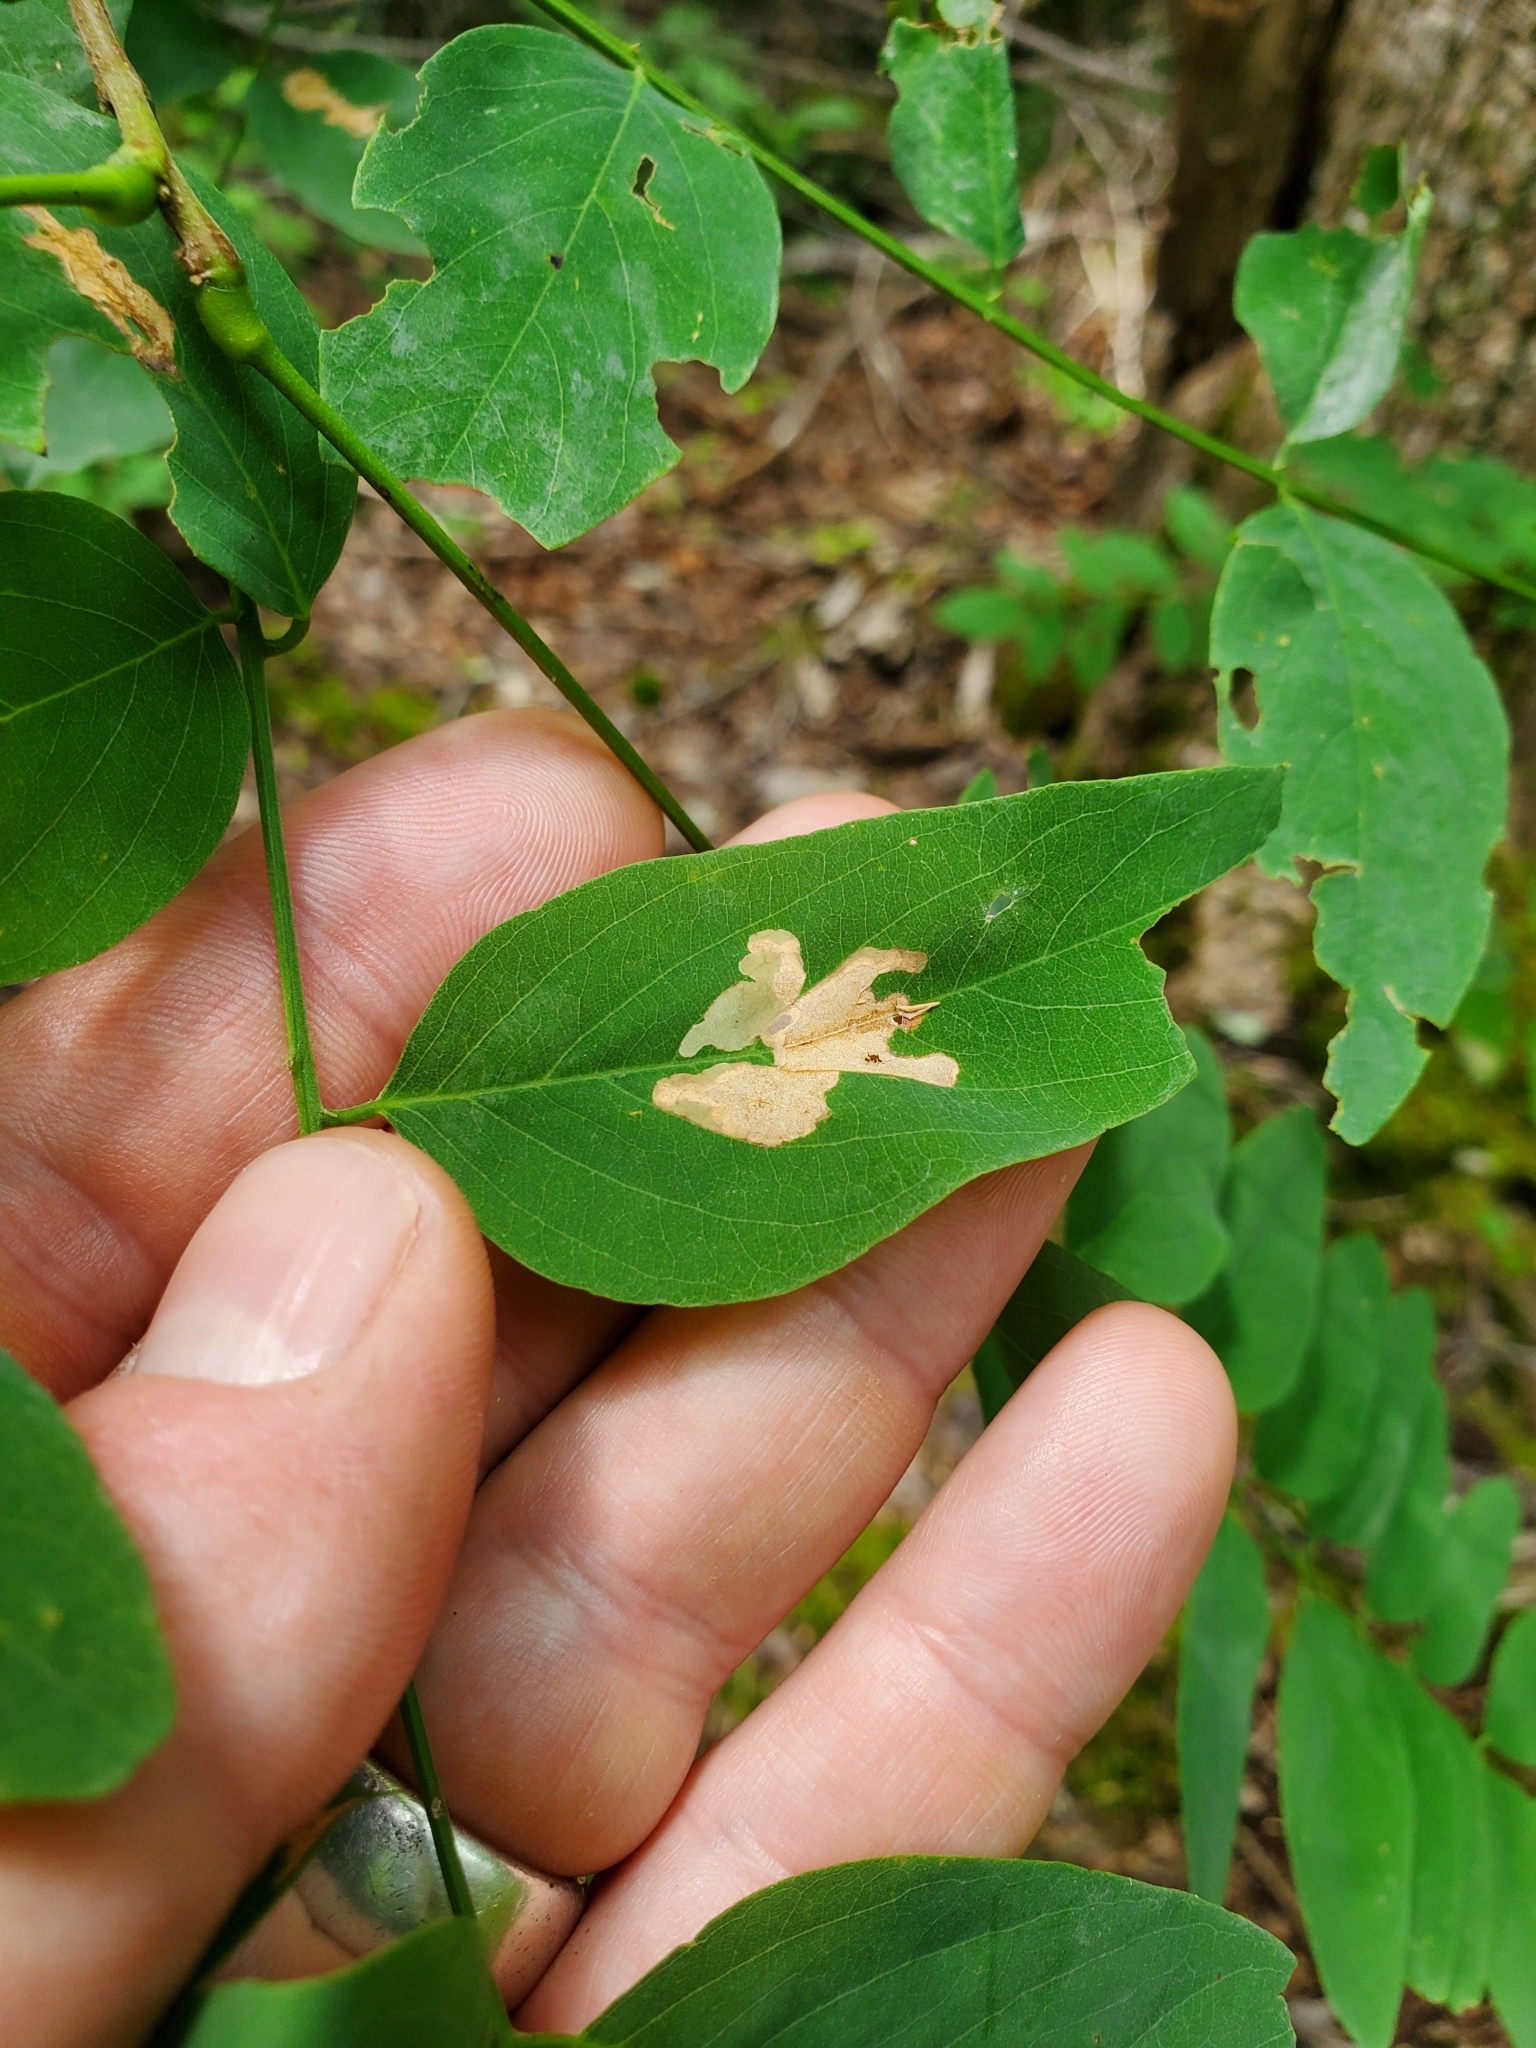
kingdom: Animalia
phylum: Arthropoda
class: Insecta
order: Lepidoptera
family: Gracillariidae
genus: Parectopa
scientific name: Parectopa robiniella
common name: Locust digitate leafminer
